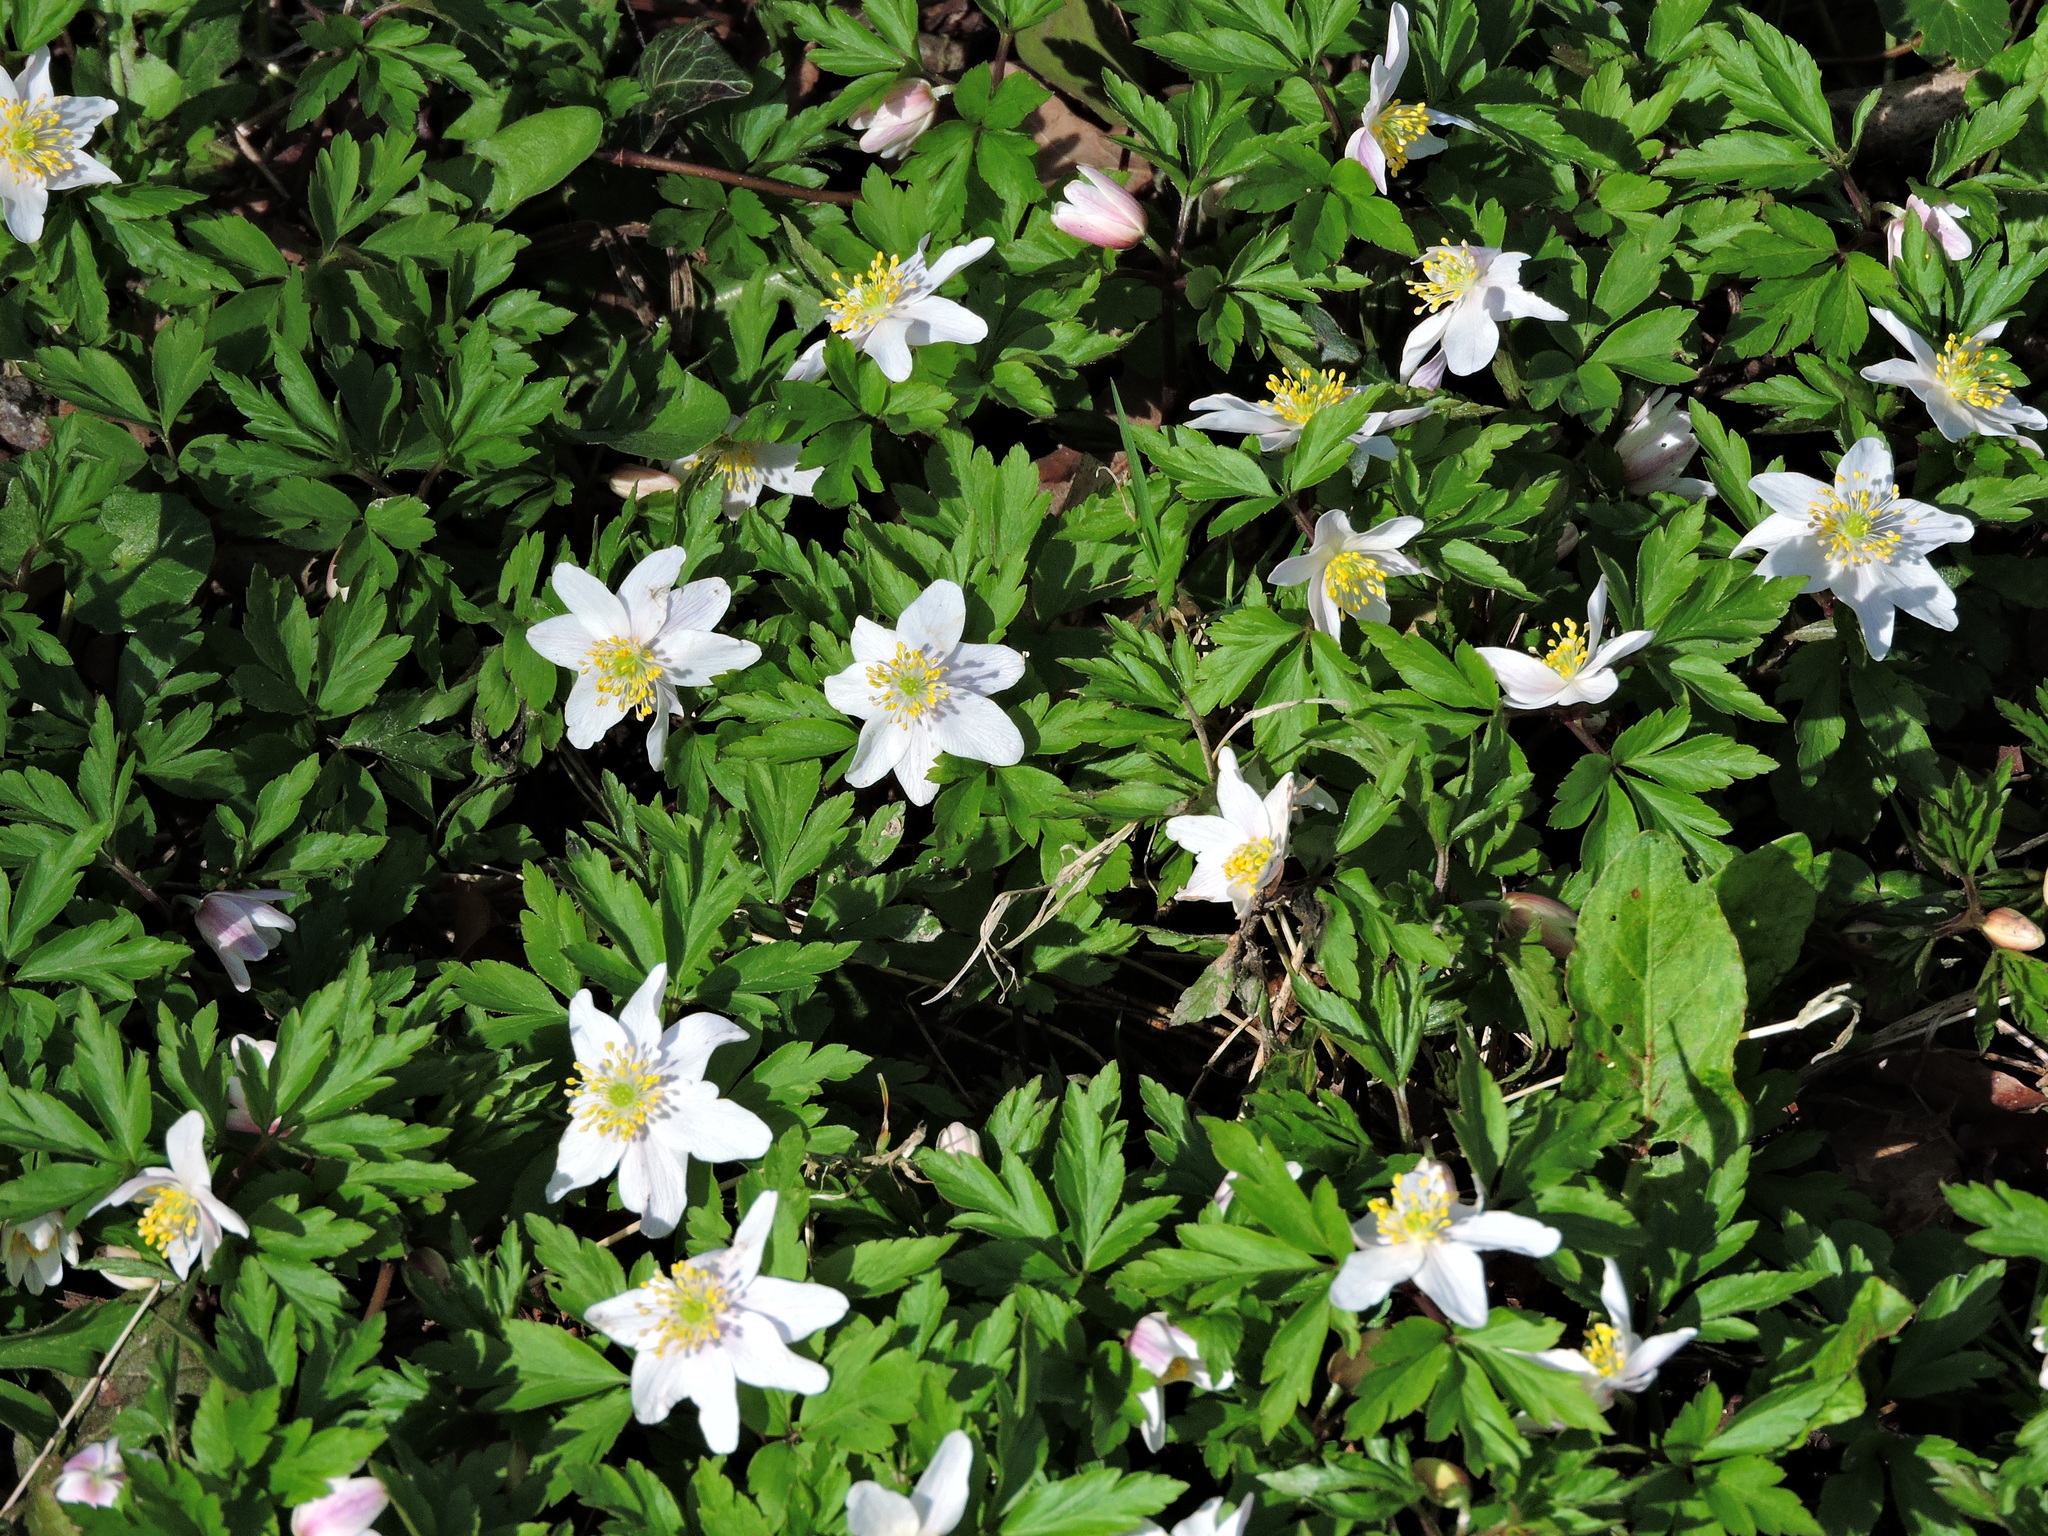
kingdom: Plantae
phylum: Tracheophyta
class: Magnoliopsida
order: Ranunculales
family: Ranunculaceae
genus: Anemone
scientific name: Anemone nemorosa
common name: Wood anemone
